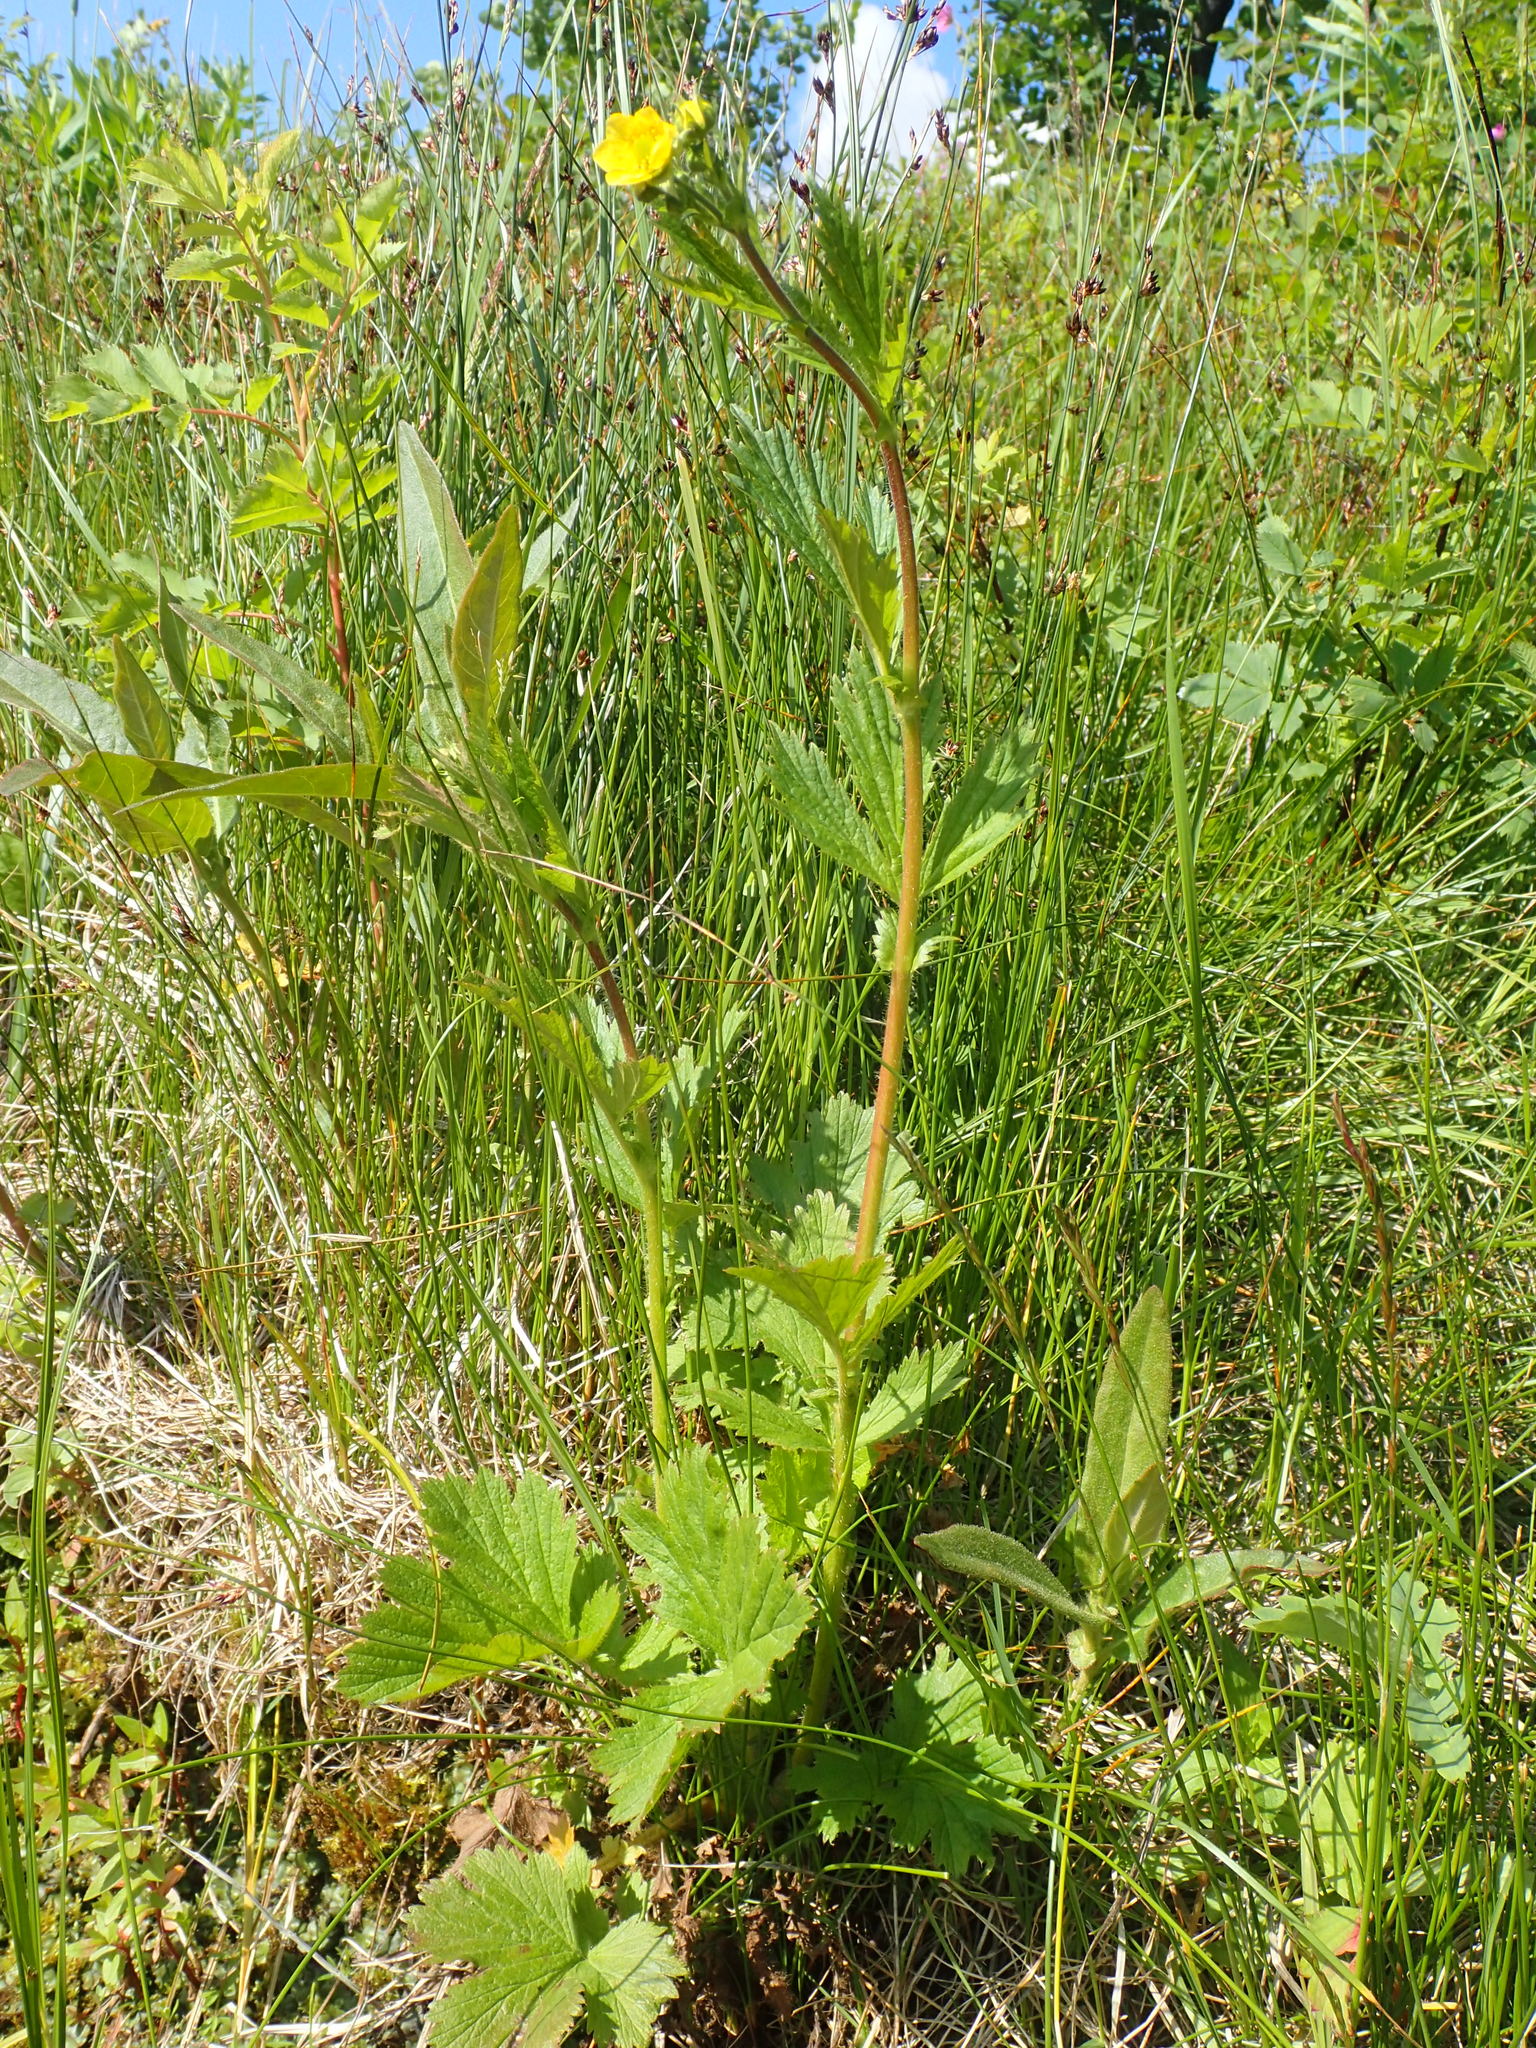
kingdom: Plantae
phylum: Tracheophyta
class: Magnoliopsida
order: Rosales
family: Rosaceae
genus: Geum
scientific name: Geum aleppicum
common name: Yellow avens
